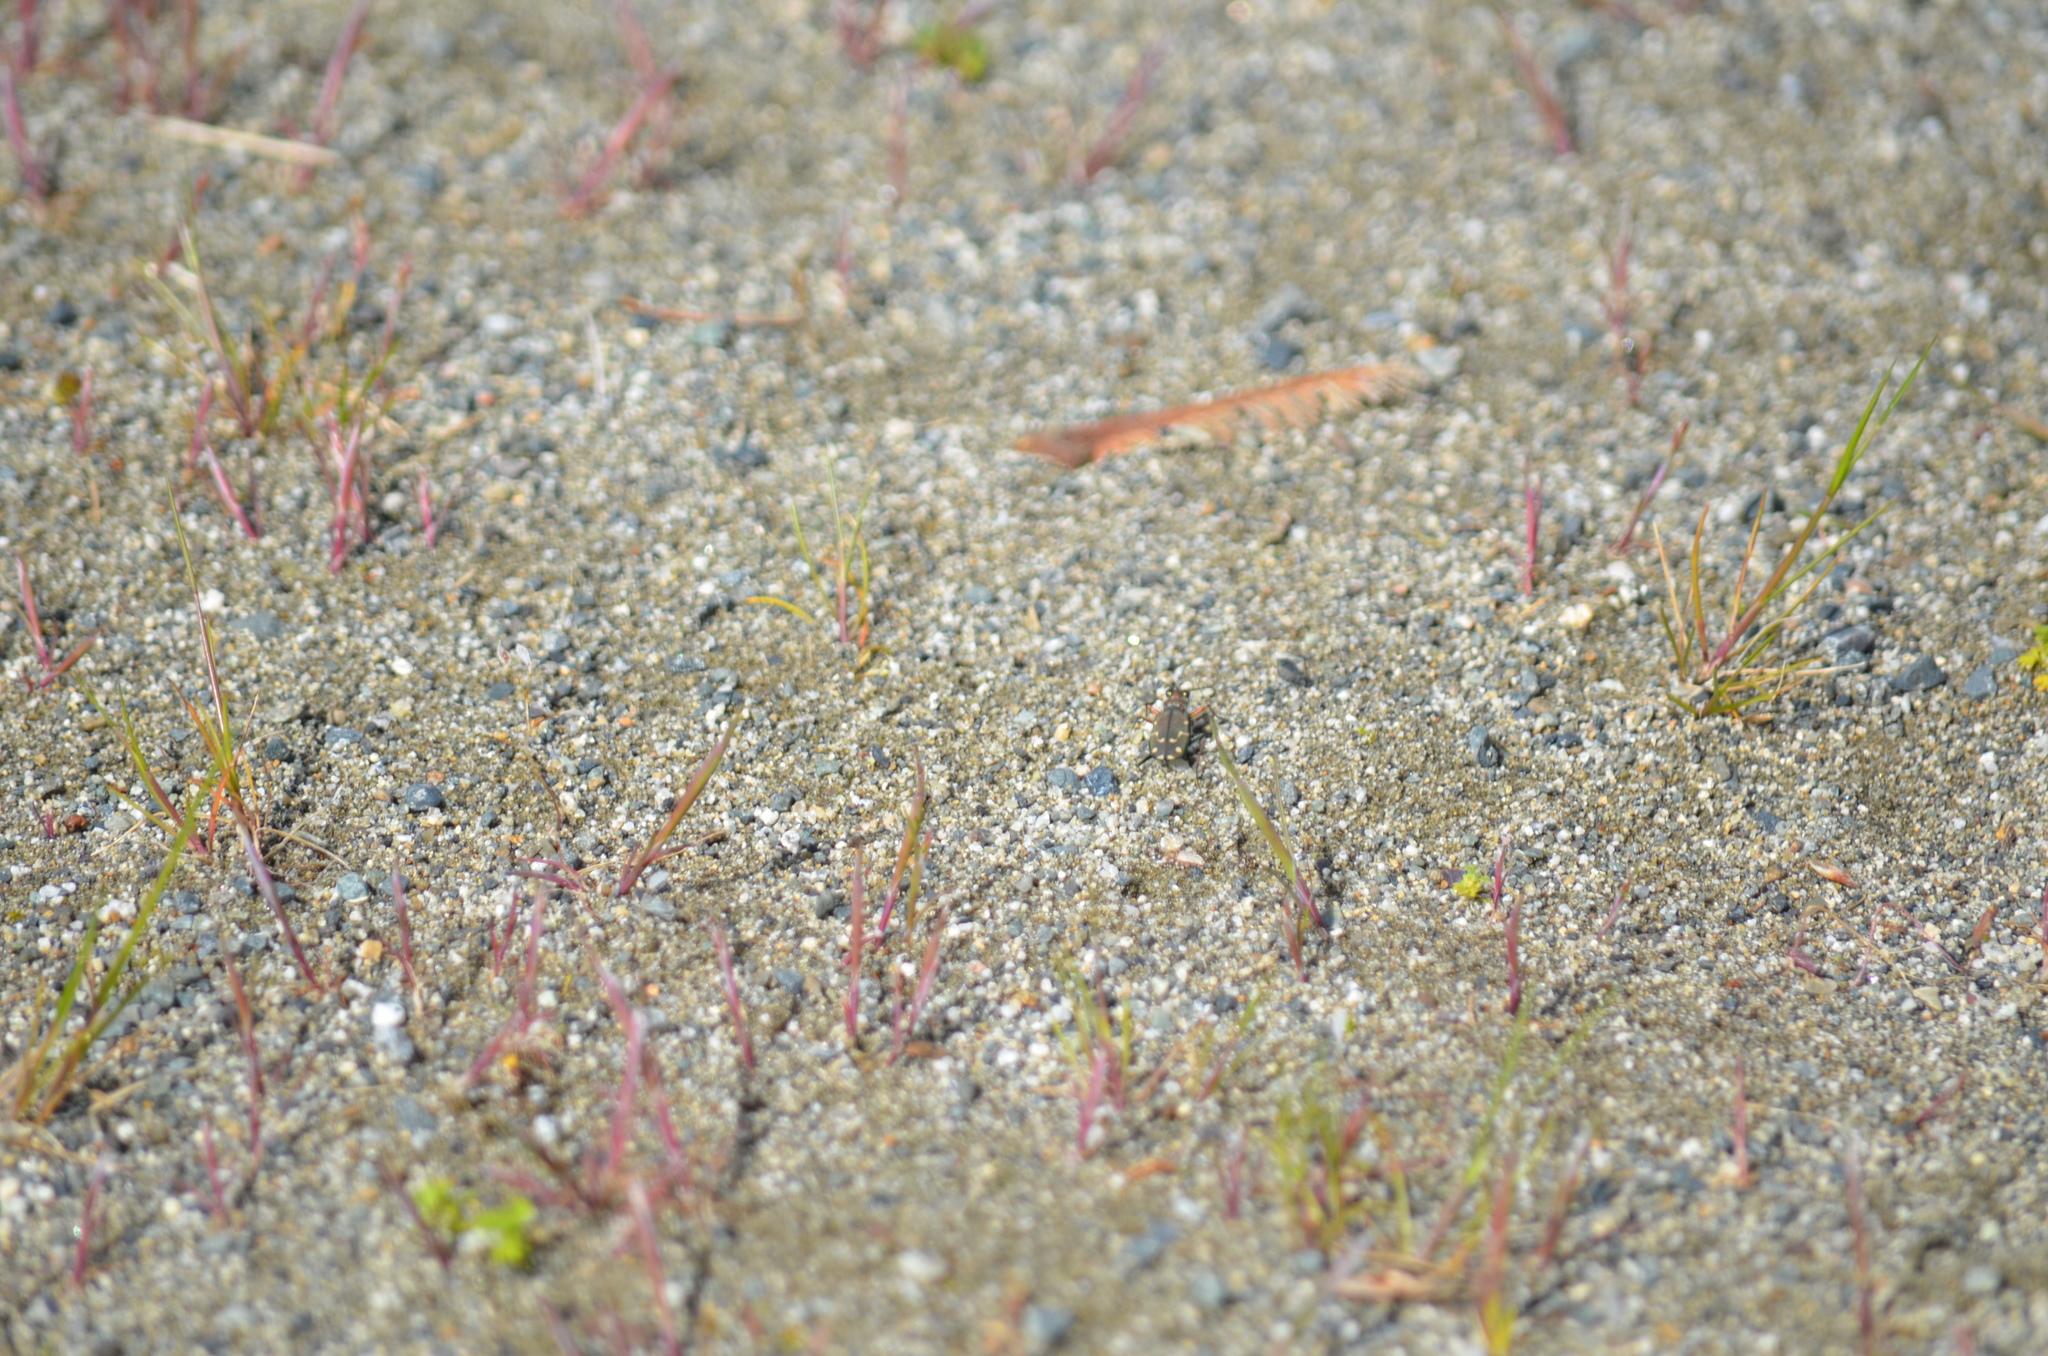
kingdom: Animalia
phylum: Arthropoda
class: Insecta
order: Coleoptera
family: Carabidae
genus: Cicindela
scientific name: Cicindela oregona
